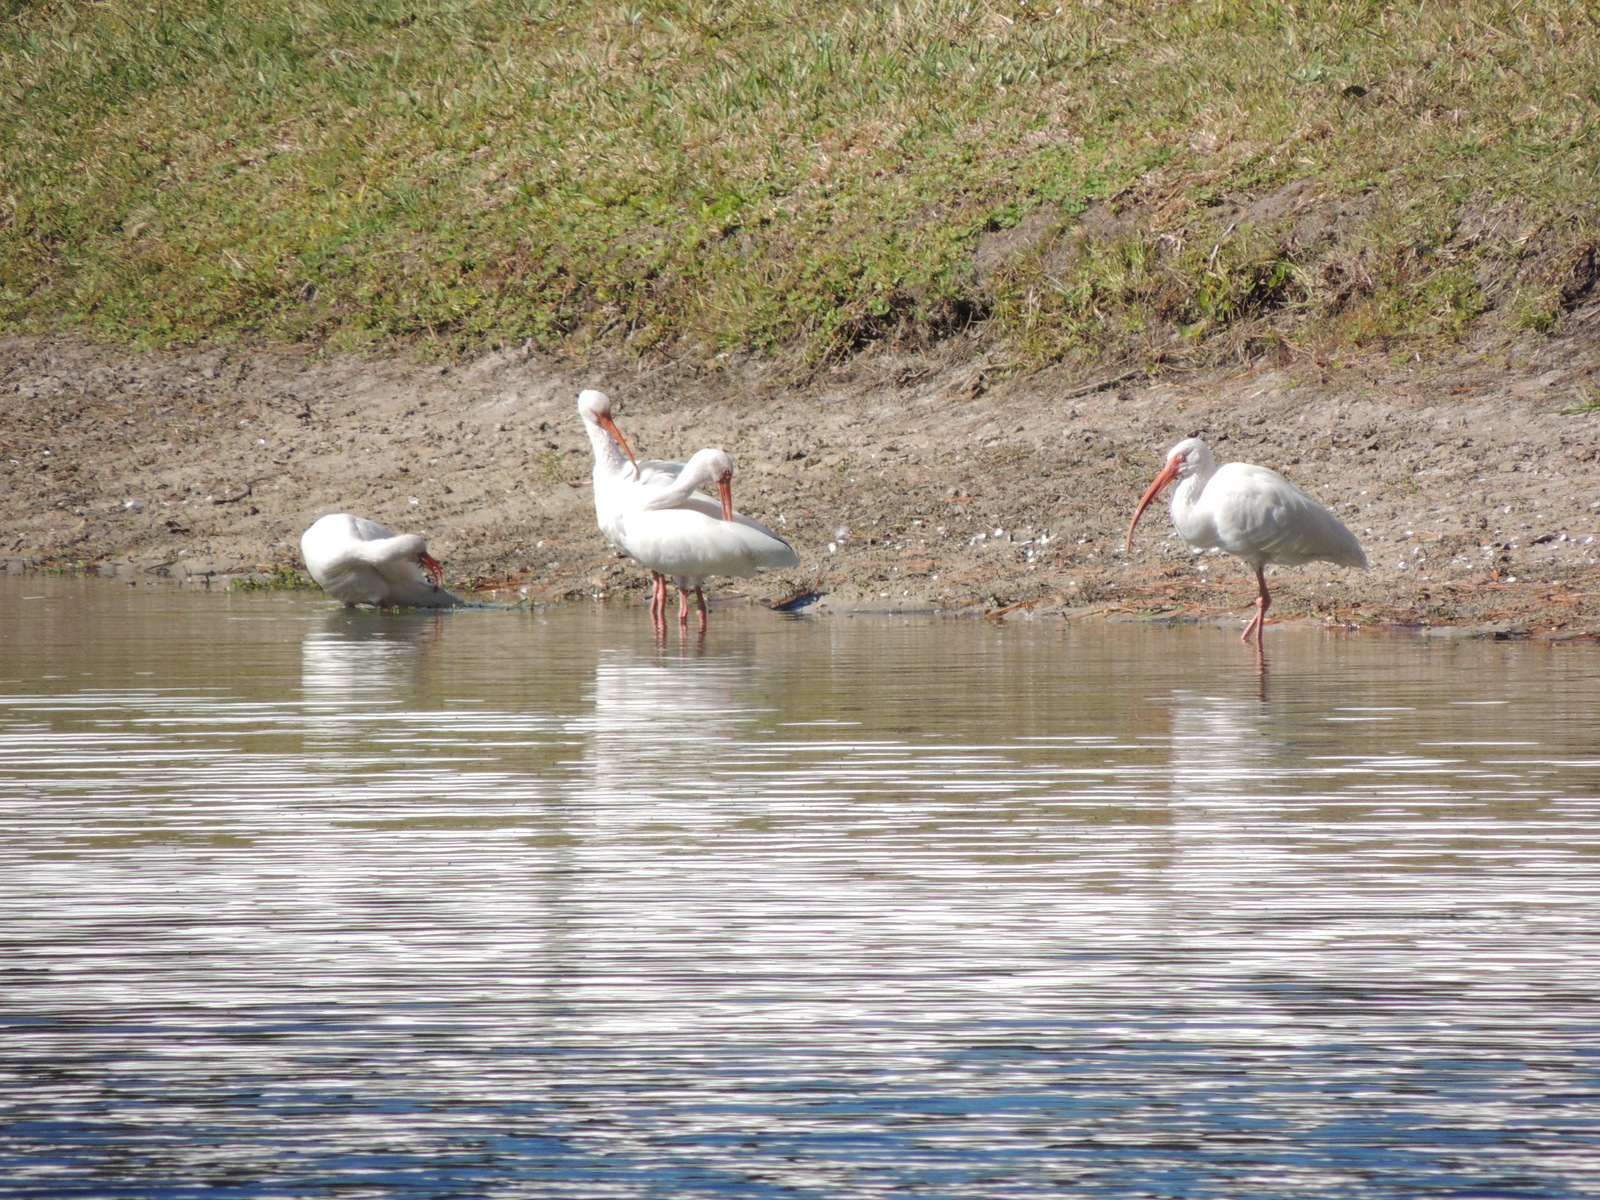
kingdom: Animalia
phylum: Chordata
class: Aves
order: Pelecaniformes
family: Threskiornithidae
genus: Eudocimus
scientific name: Eudocimus albus
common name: White ibis
